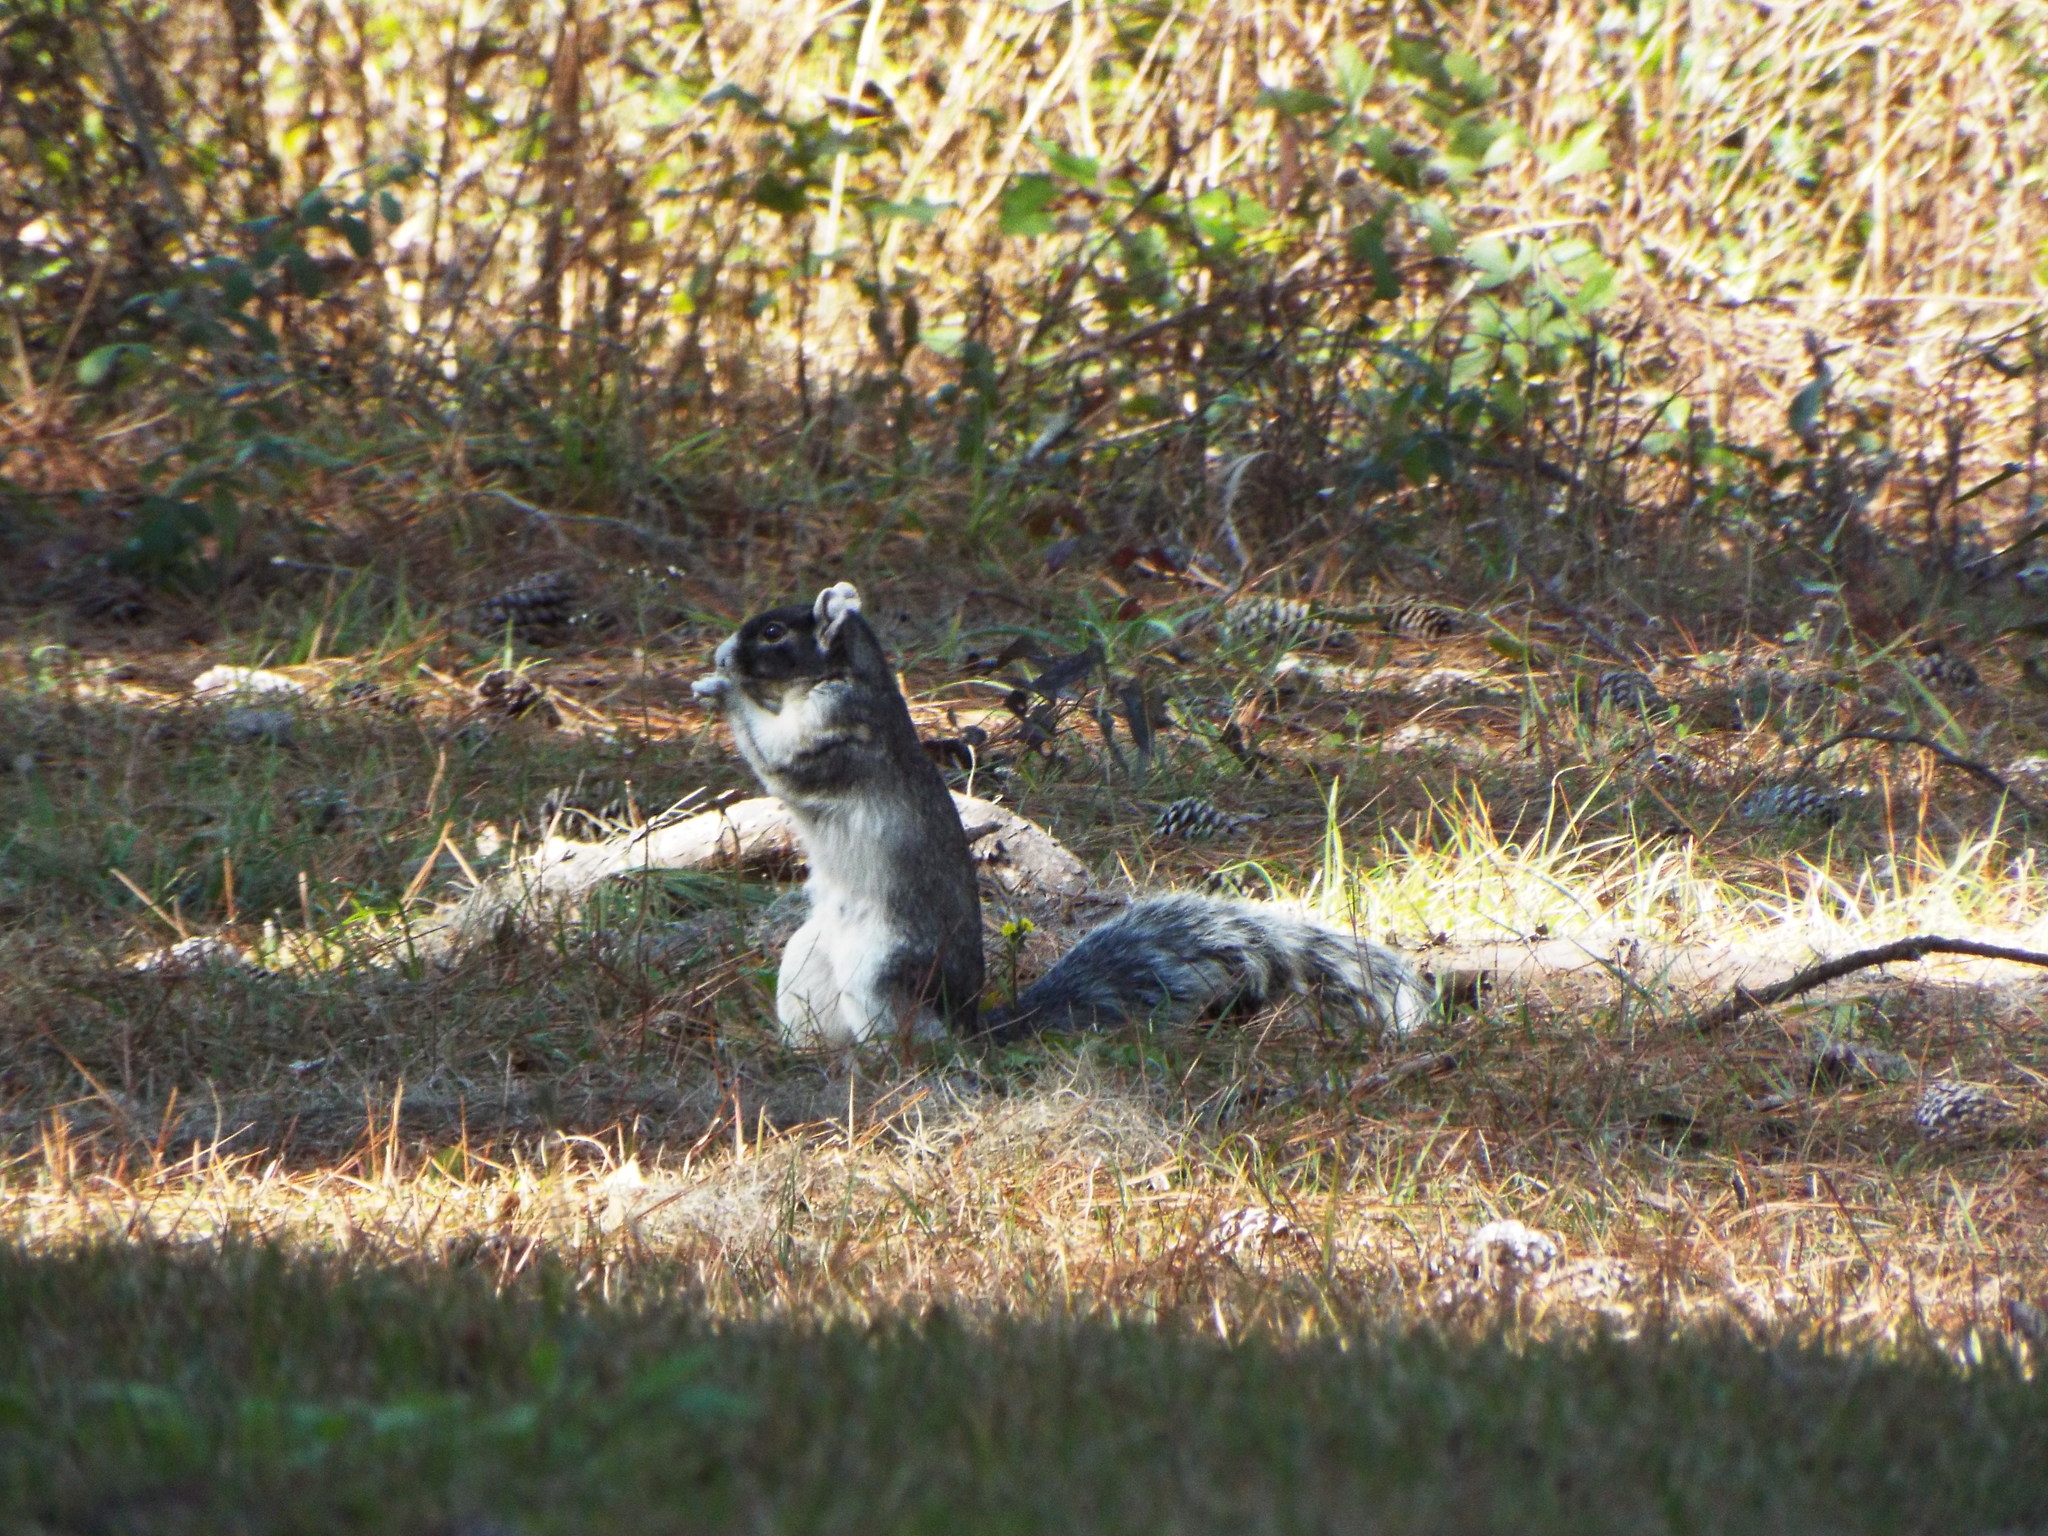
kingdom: Animalia
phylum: Chordata
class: Mammalia
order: Rodentia
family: Sciuridae
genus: Sciurus
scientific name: Sciurus niger
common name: Fox squirrel
